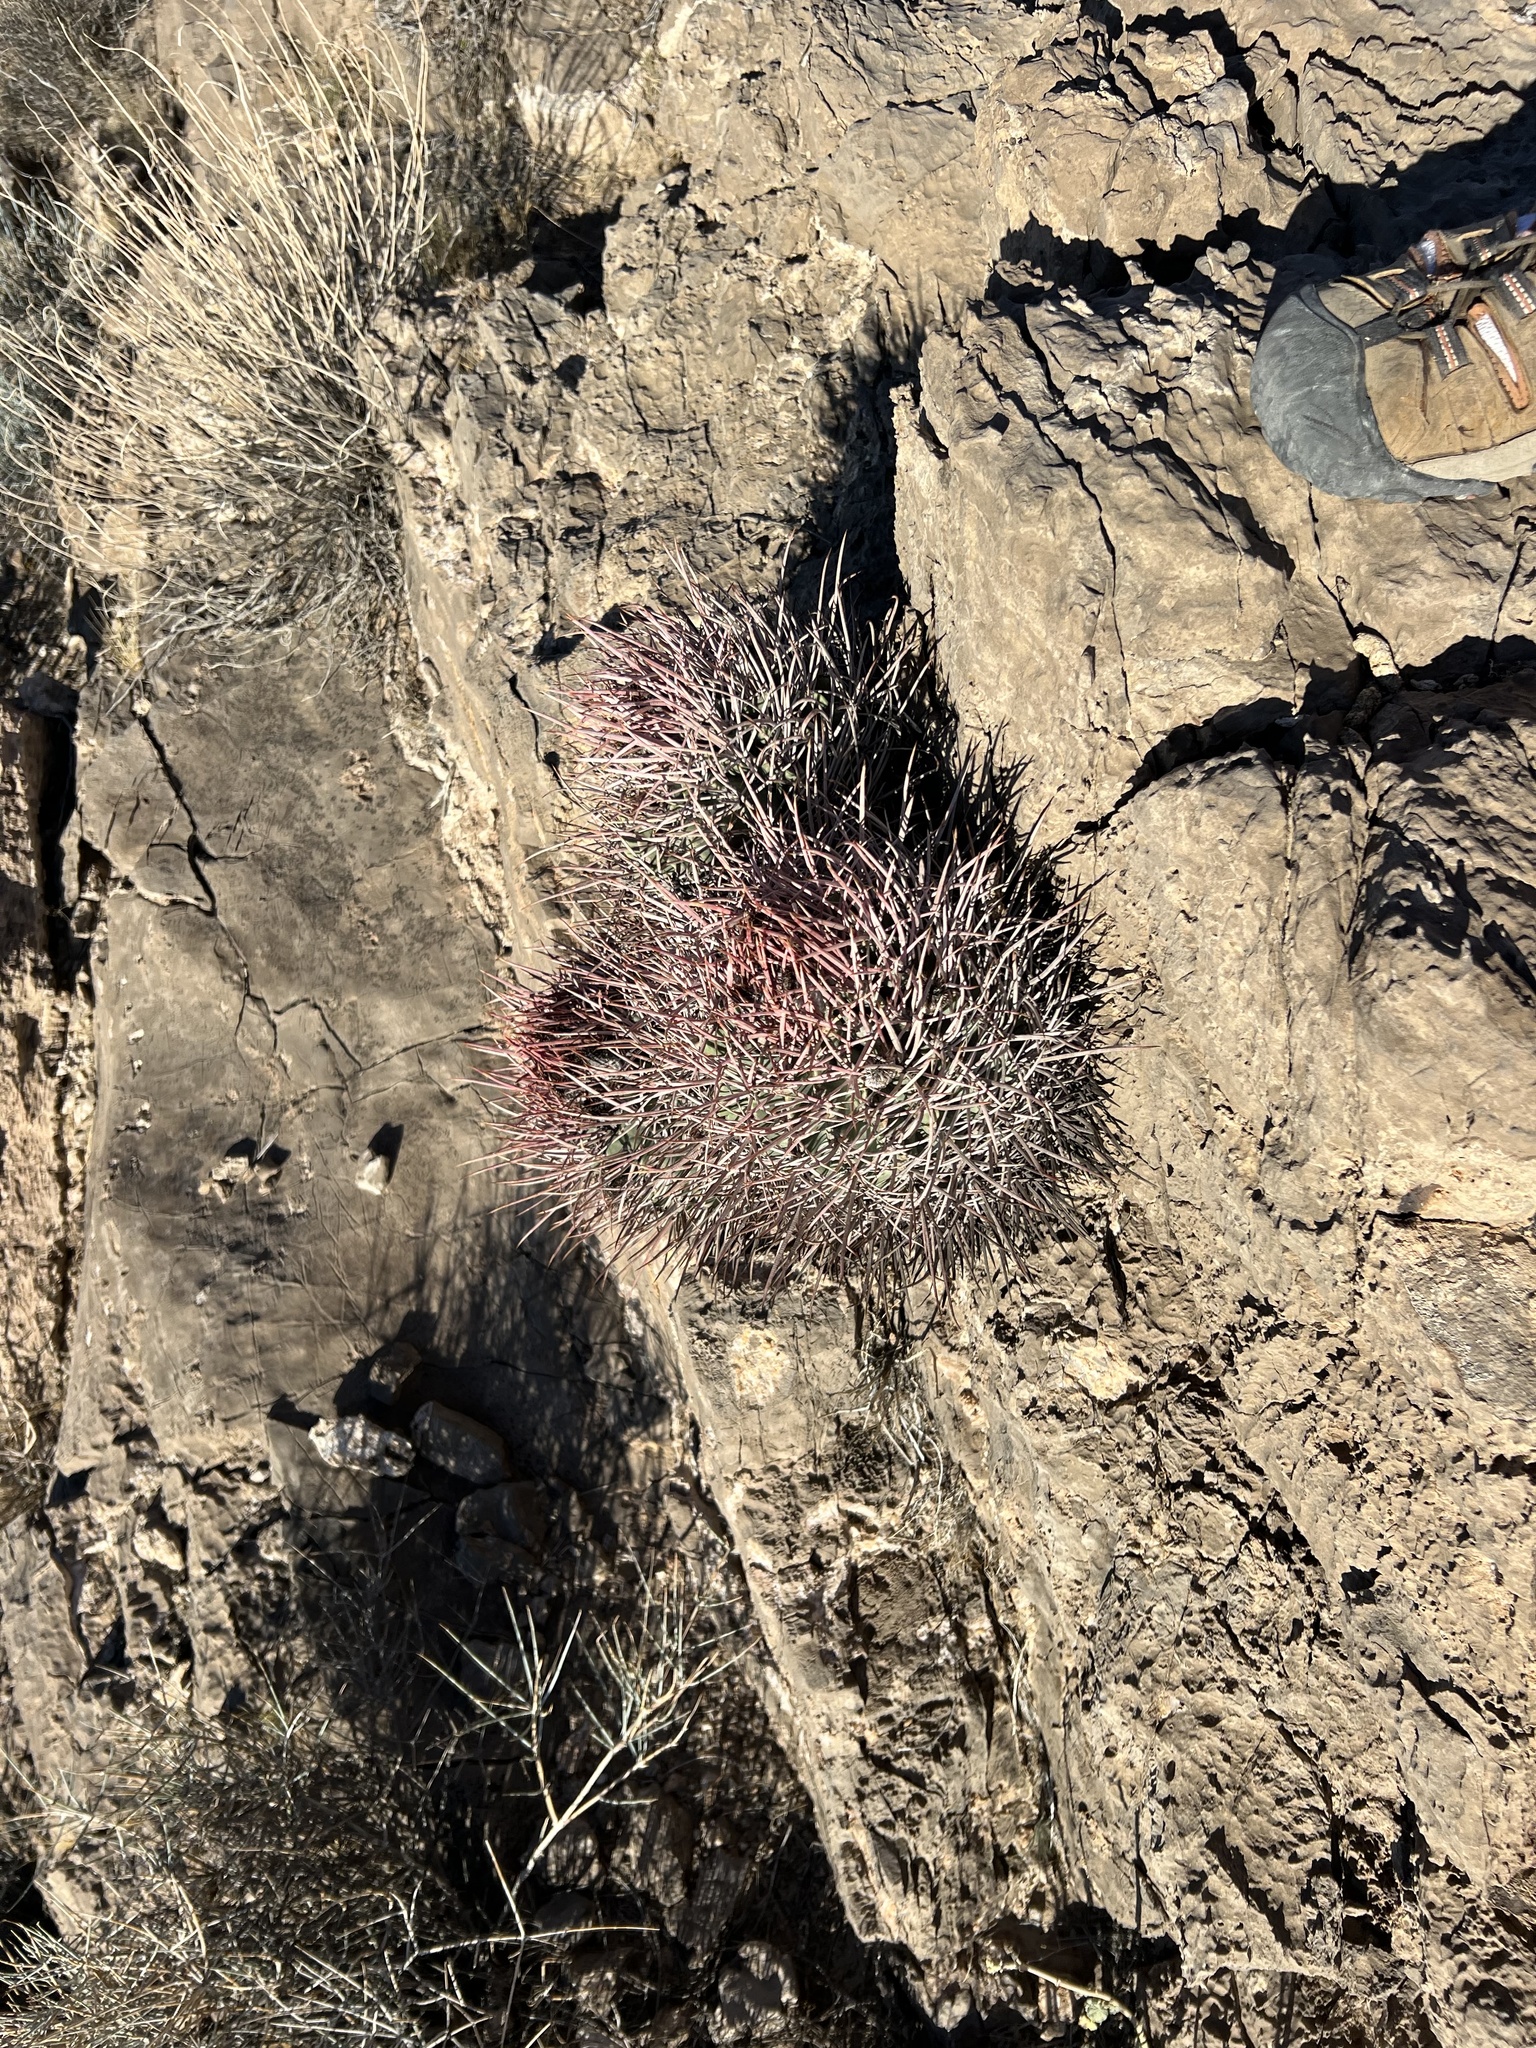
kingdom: Plantae
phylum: Tracheophyta
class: Magnoliopsida
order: Caryophyllales
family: Cactaceae
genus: Echinocactus
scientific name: Echinocactus polycephalus
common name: Cottontop cactus
